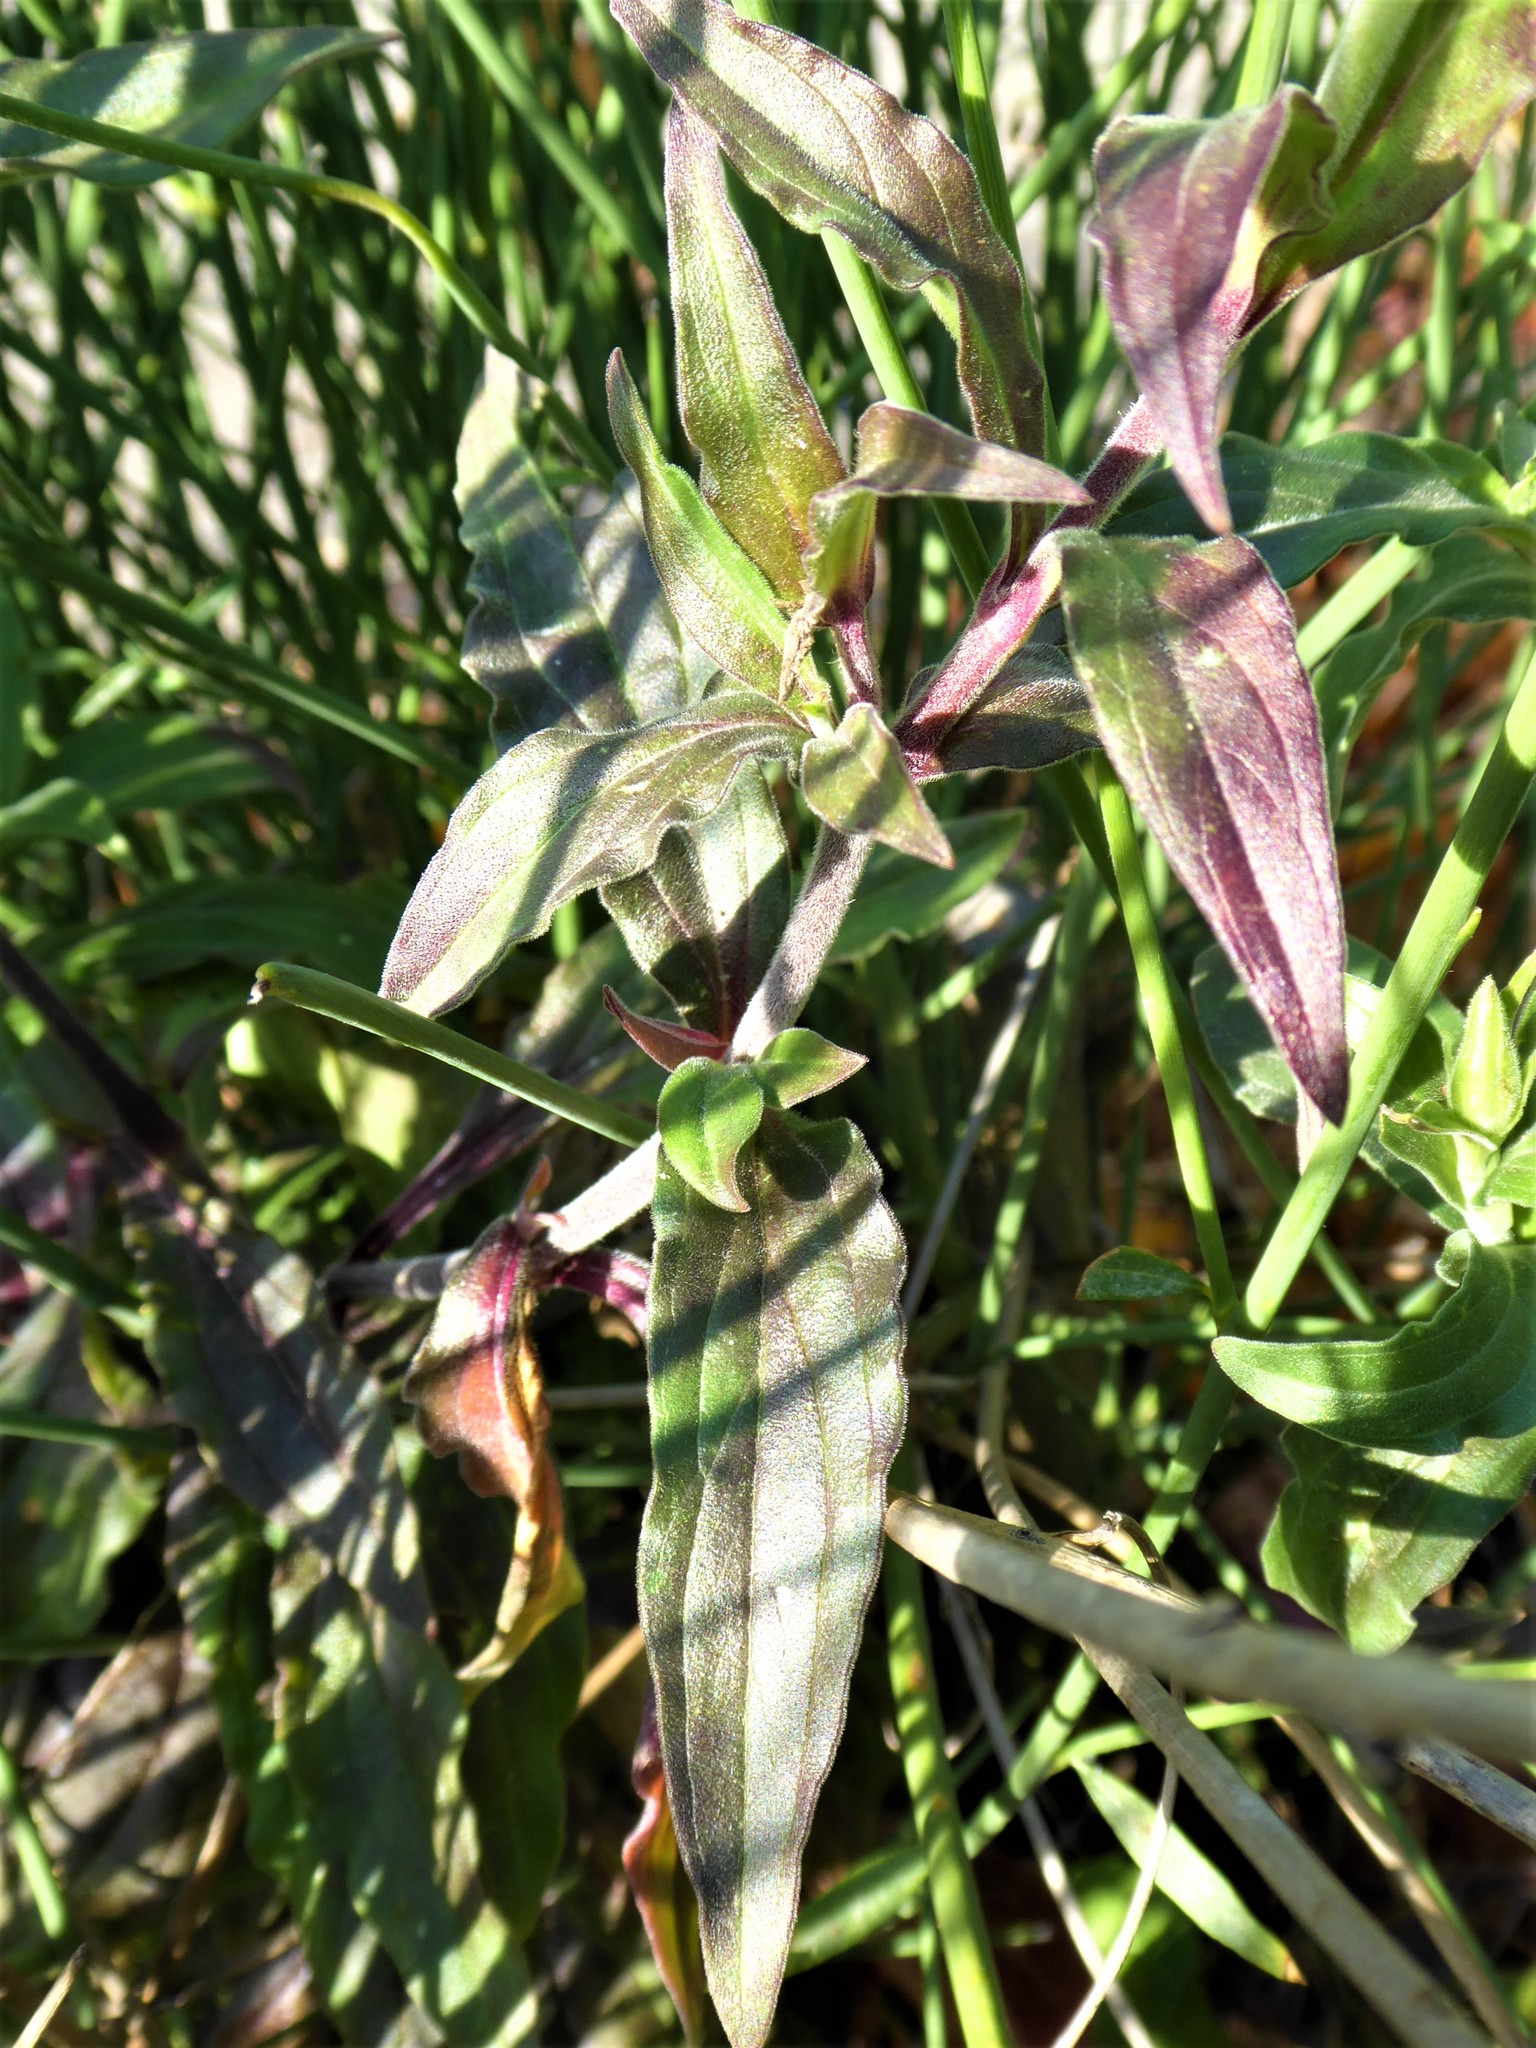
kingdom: Plantae
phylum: Tracheophyta
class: Magnoliopsida
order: Caryophyllales
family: Caryophyllaceae
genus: Silene
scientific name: Silene latifolia
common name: White campion
